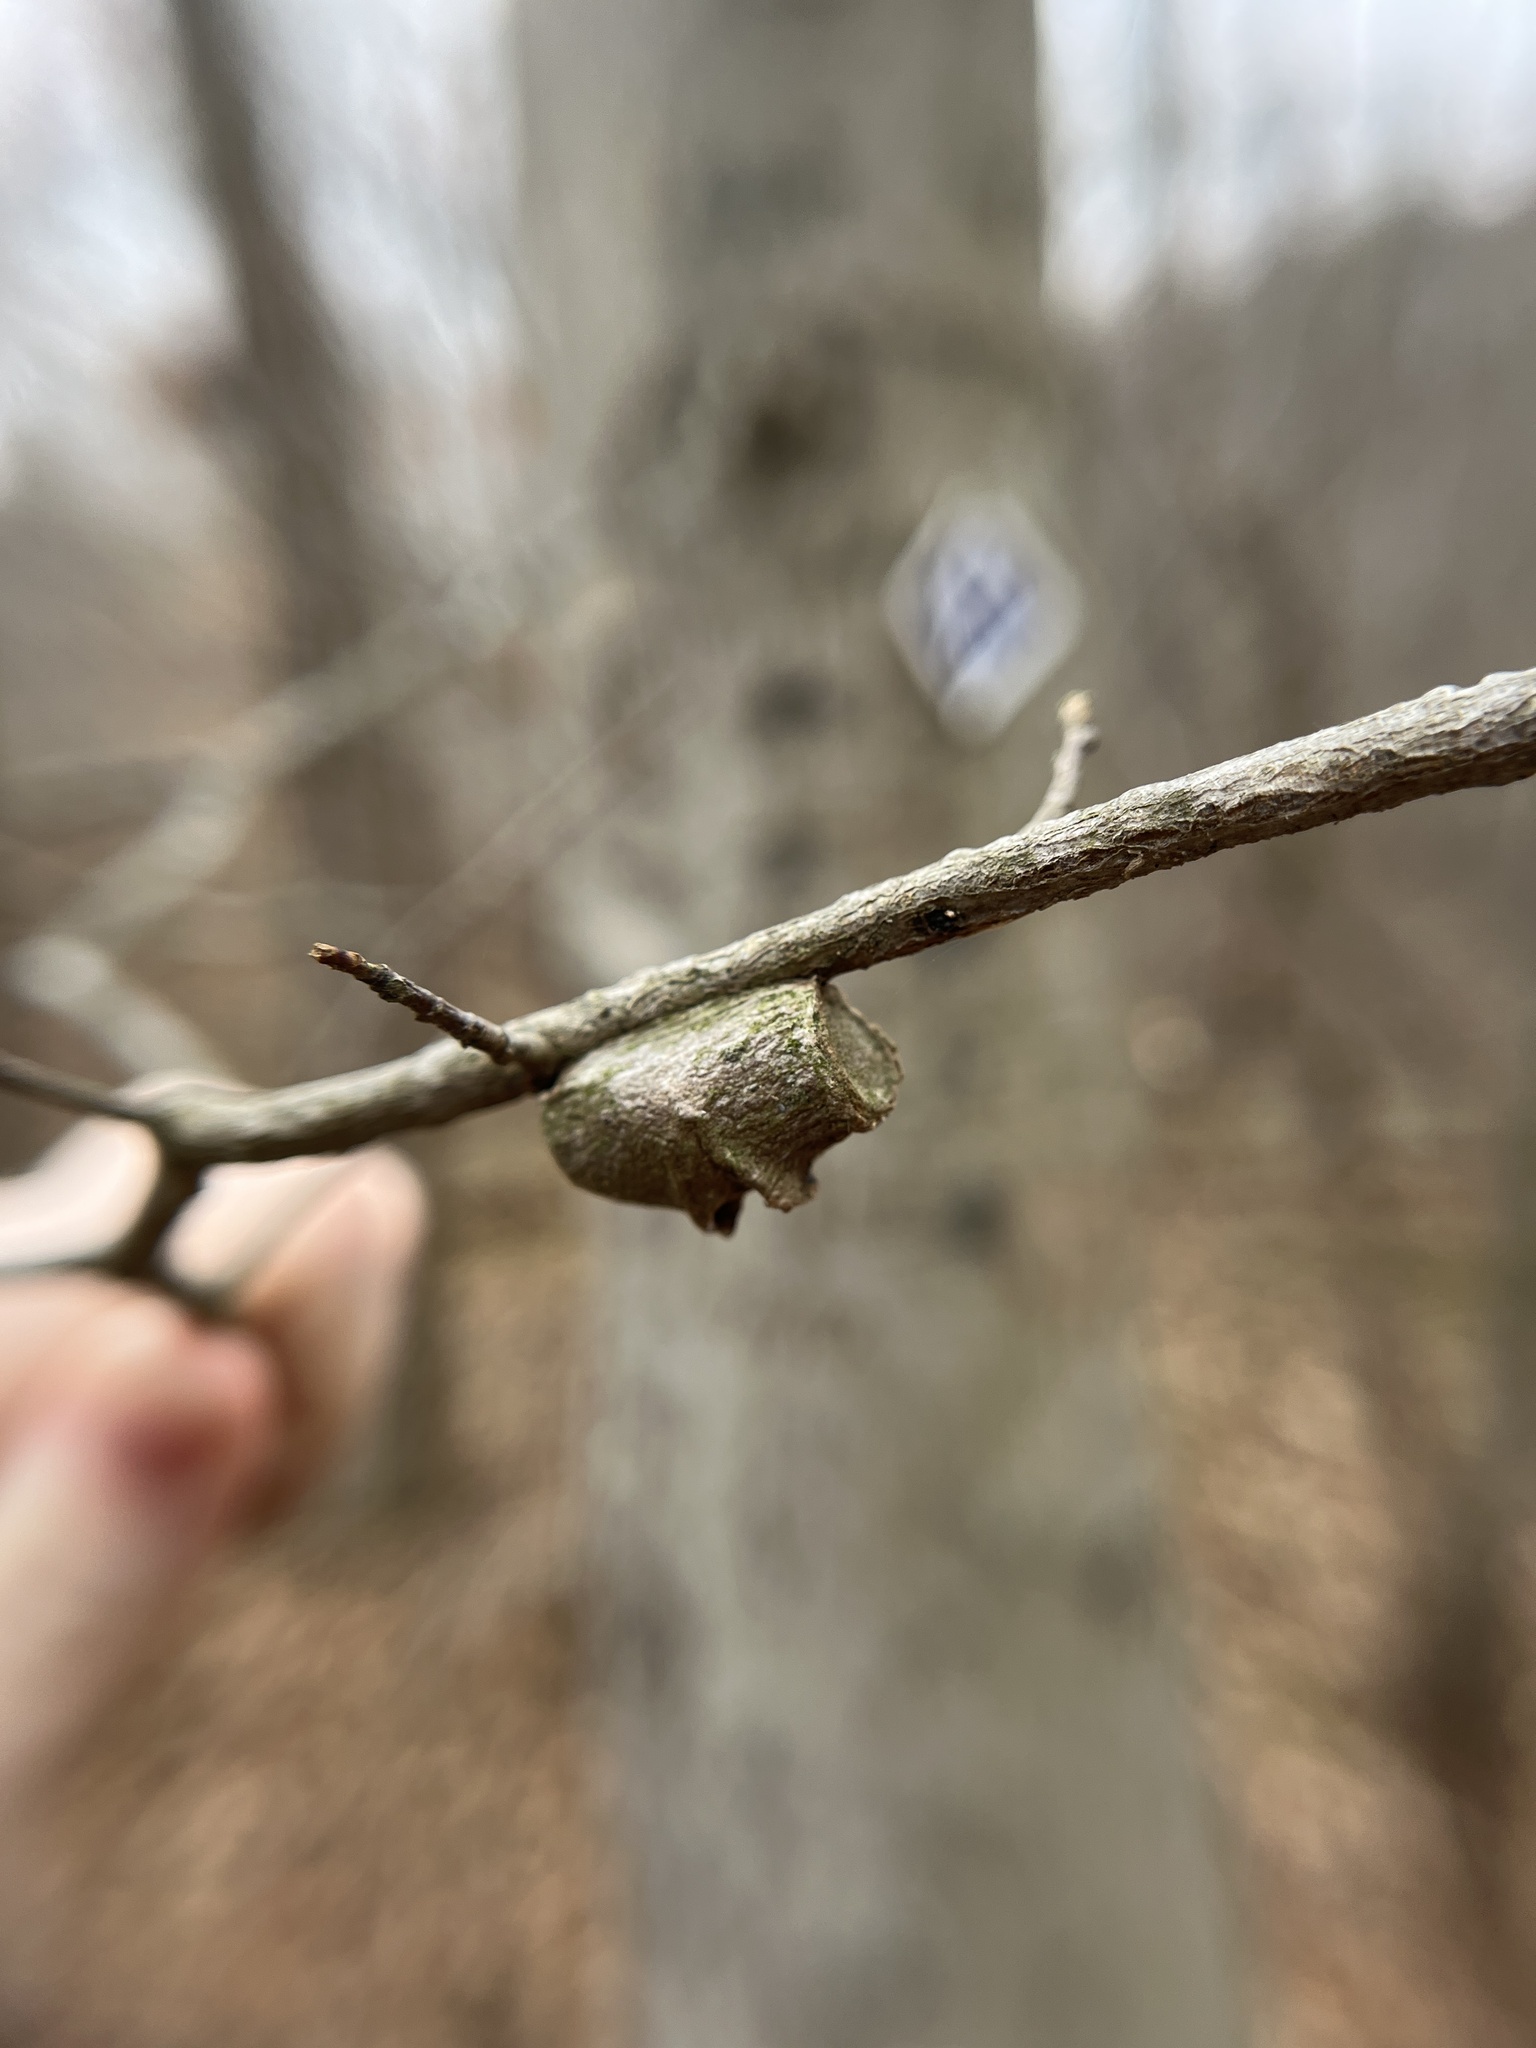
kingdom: Animalia
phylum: Arthropoda
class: Insecta
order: Lepidoptera
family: Megalopygidae
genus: Megalopyge
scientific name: Megalopyge
